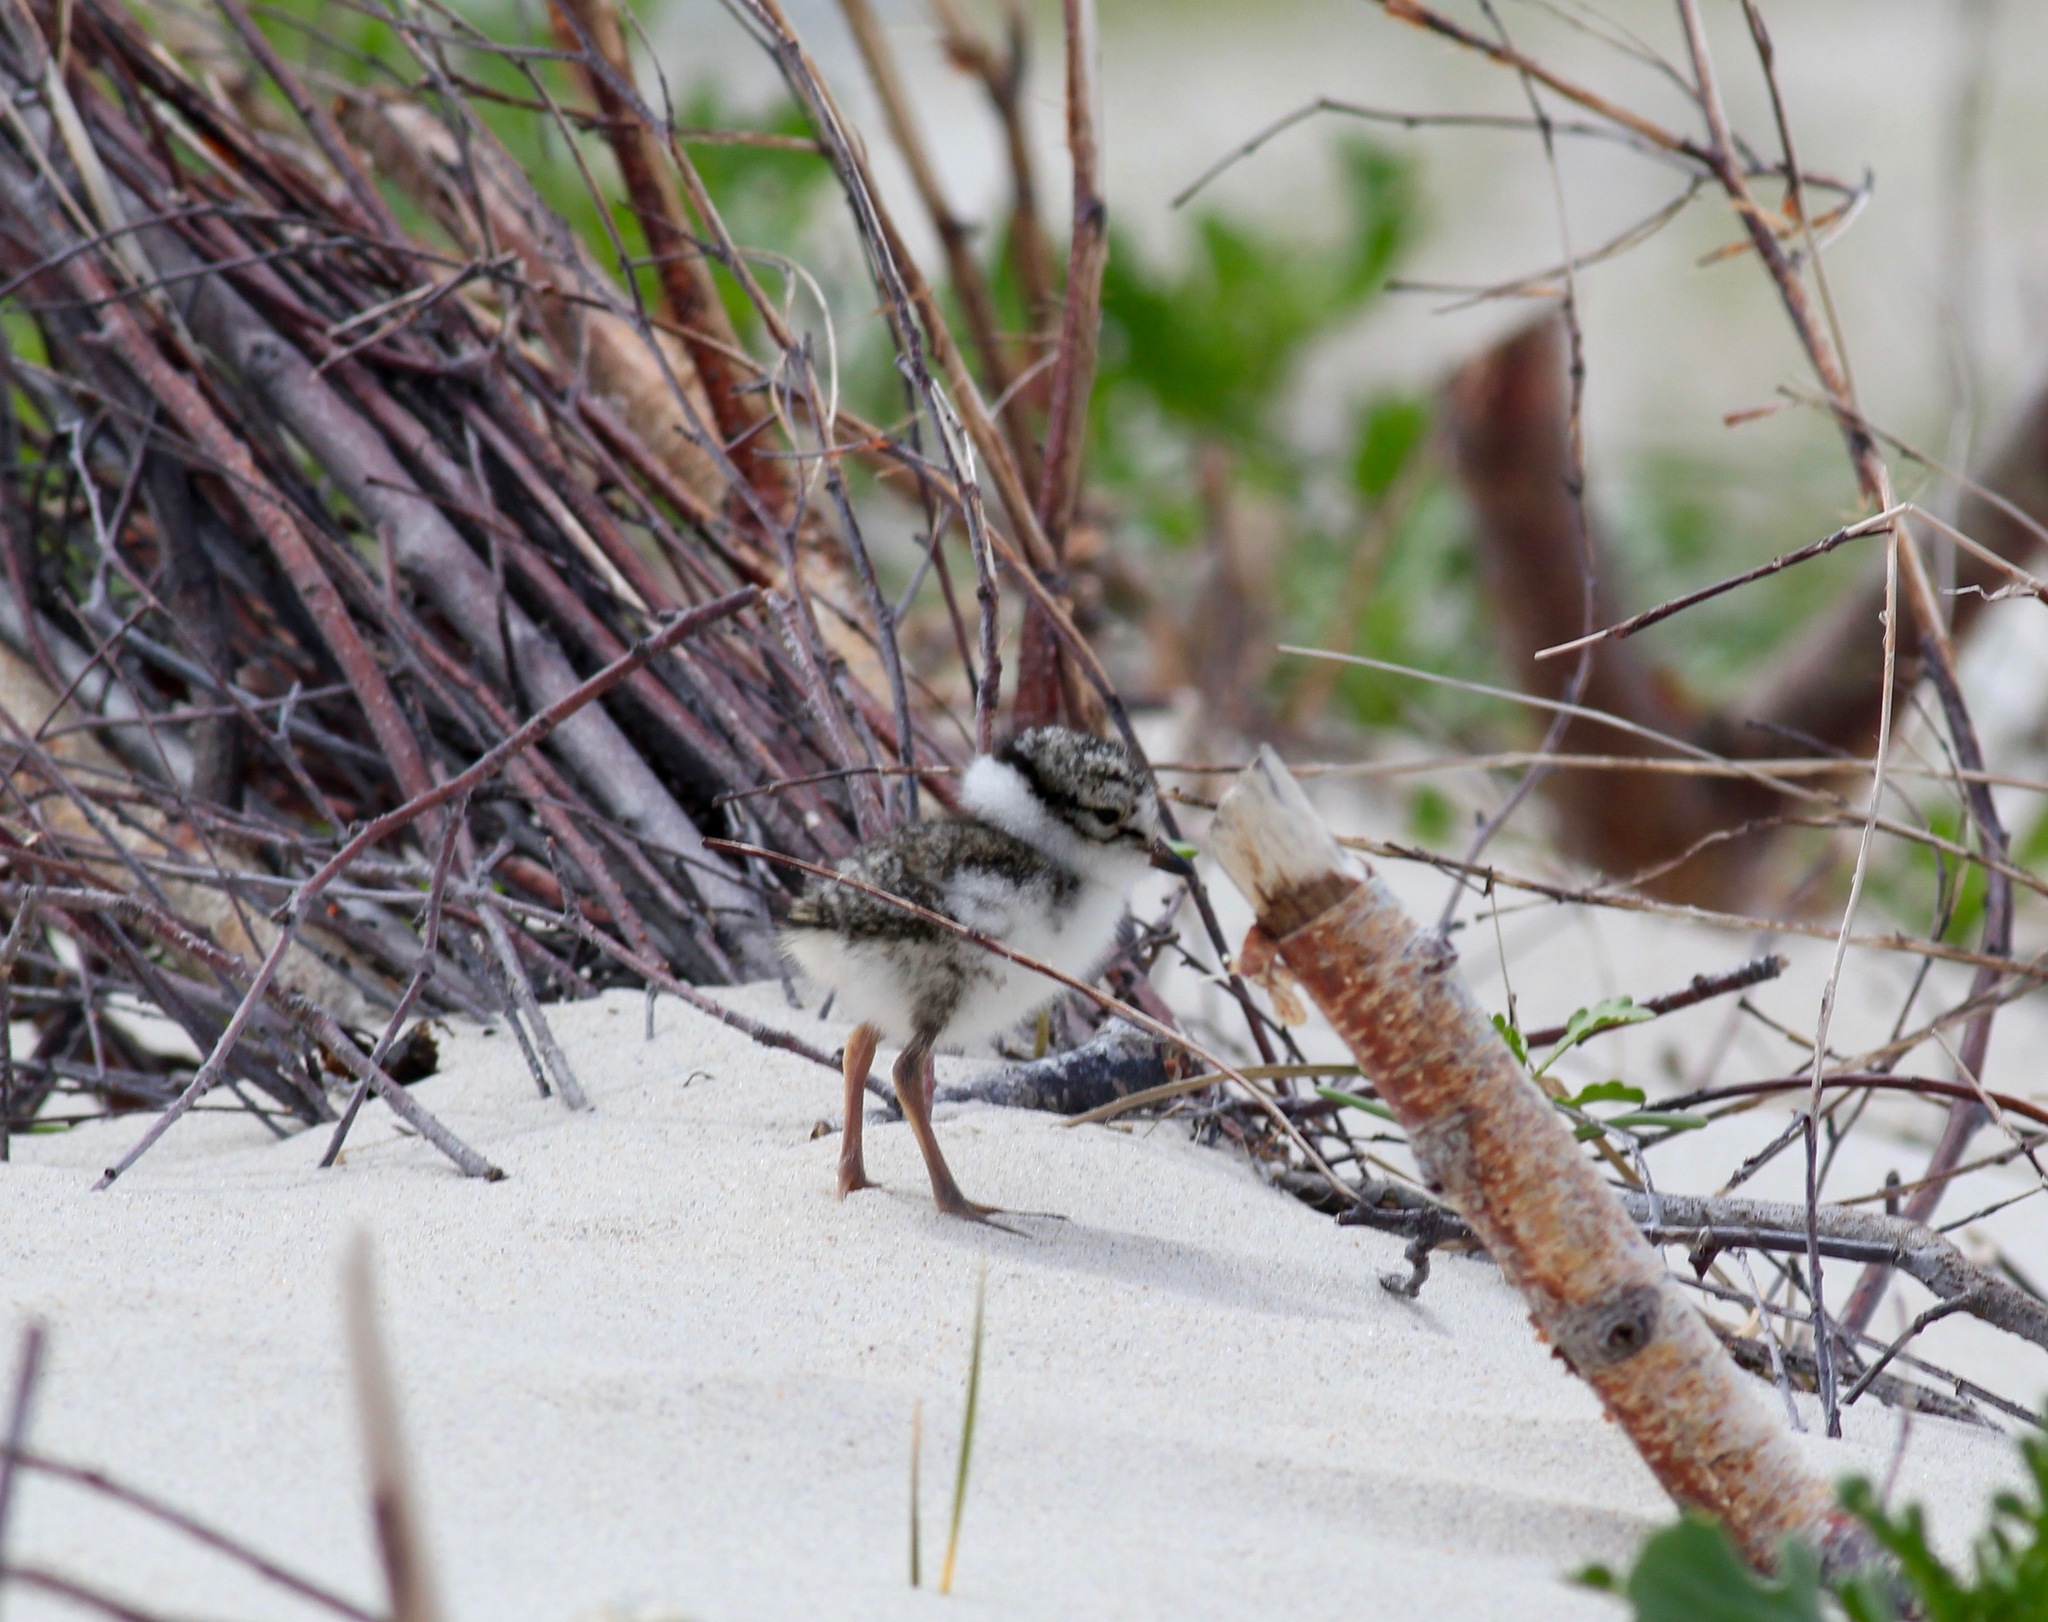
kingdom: Animalia
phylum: Chordata
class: Aves
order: Charadriiformes
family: Charadriidae
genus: Charadrius
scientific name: Charadrius hiaticula
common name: Common ringed plover
